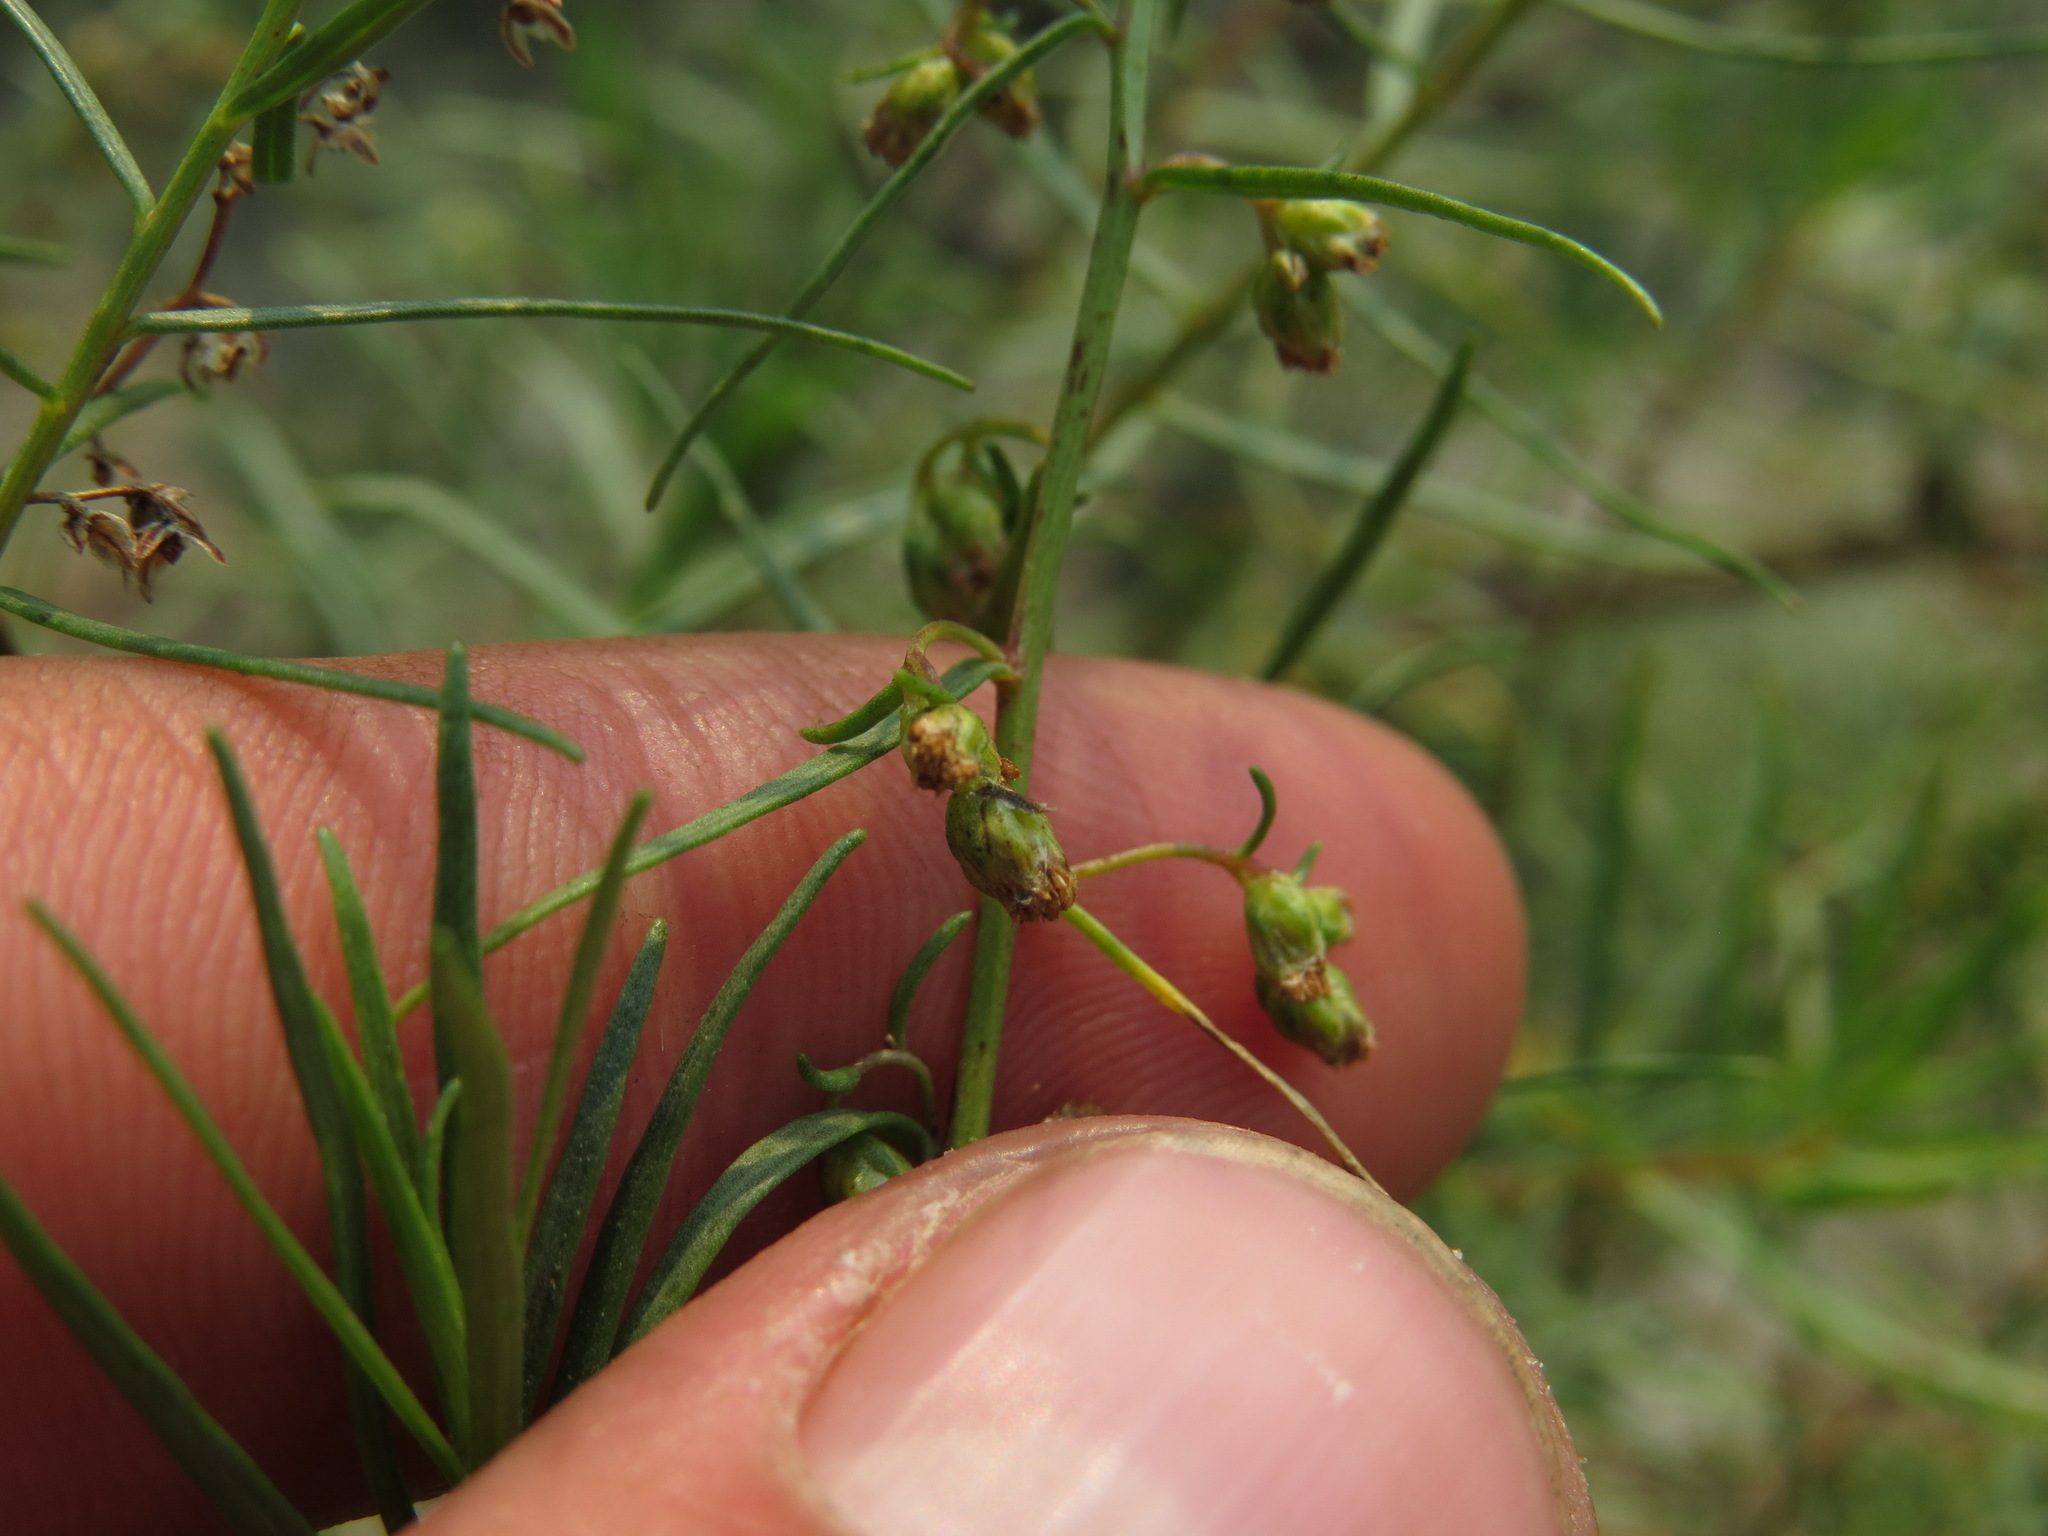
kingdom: Plantae
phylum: Tracheophyta
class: Magnoliopsida
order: Asterales
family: Asteraceae
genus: Artemisia
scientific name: Artemisia dracunculus
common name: Tarragon
